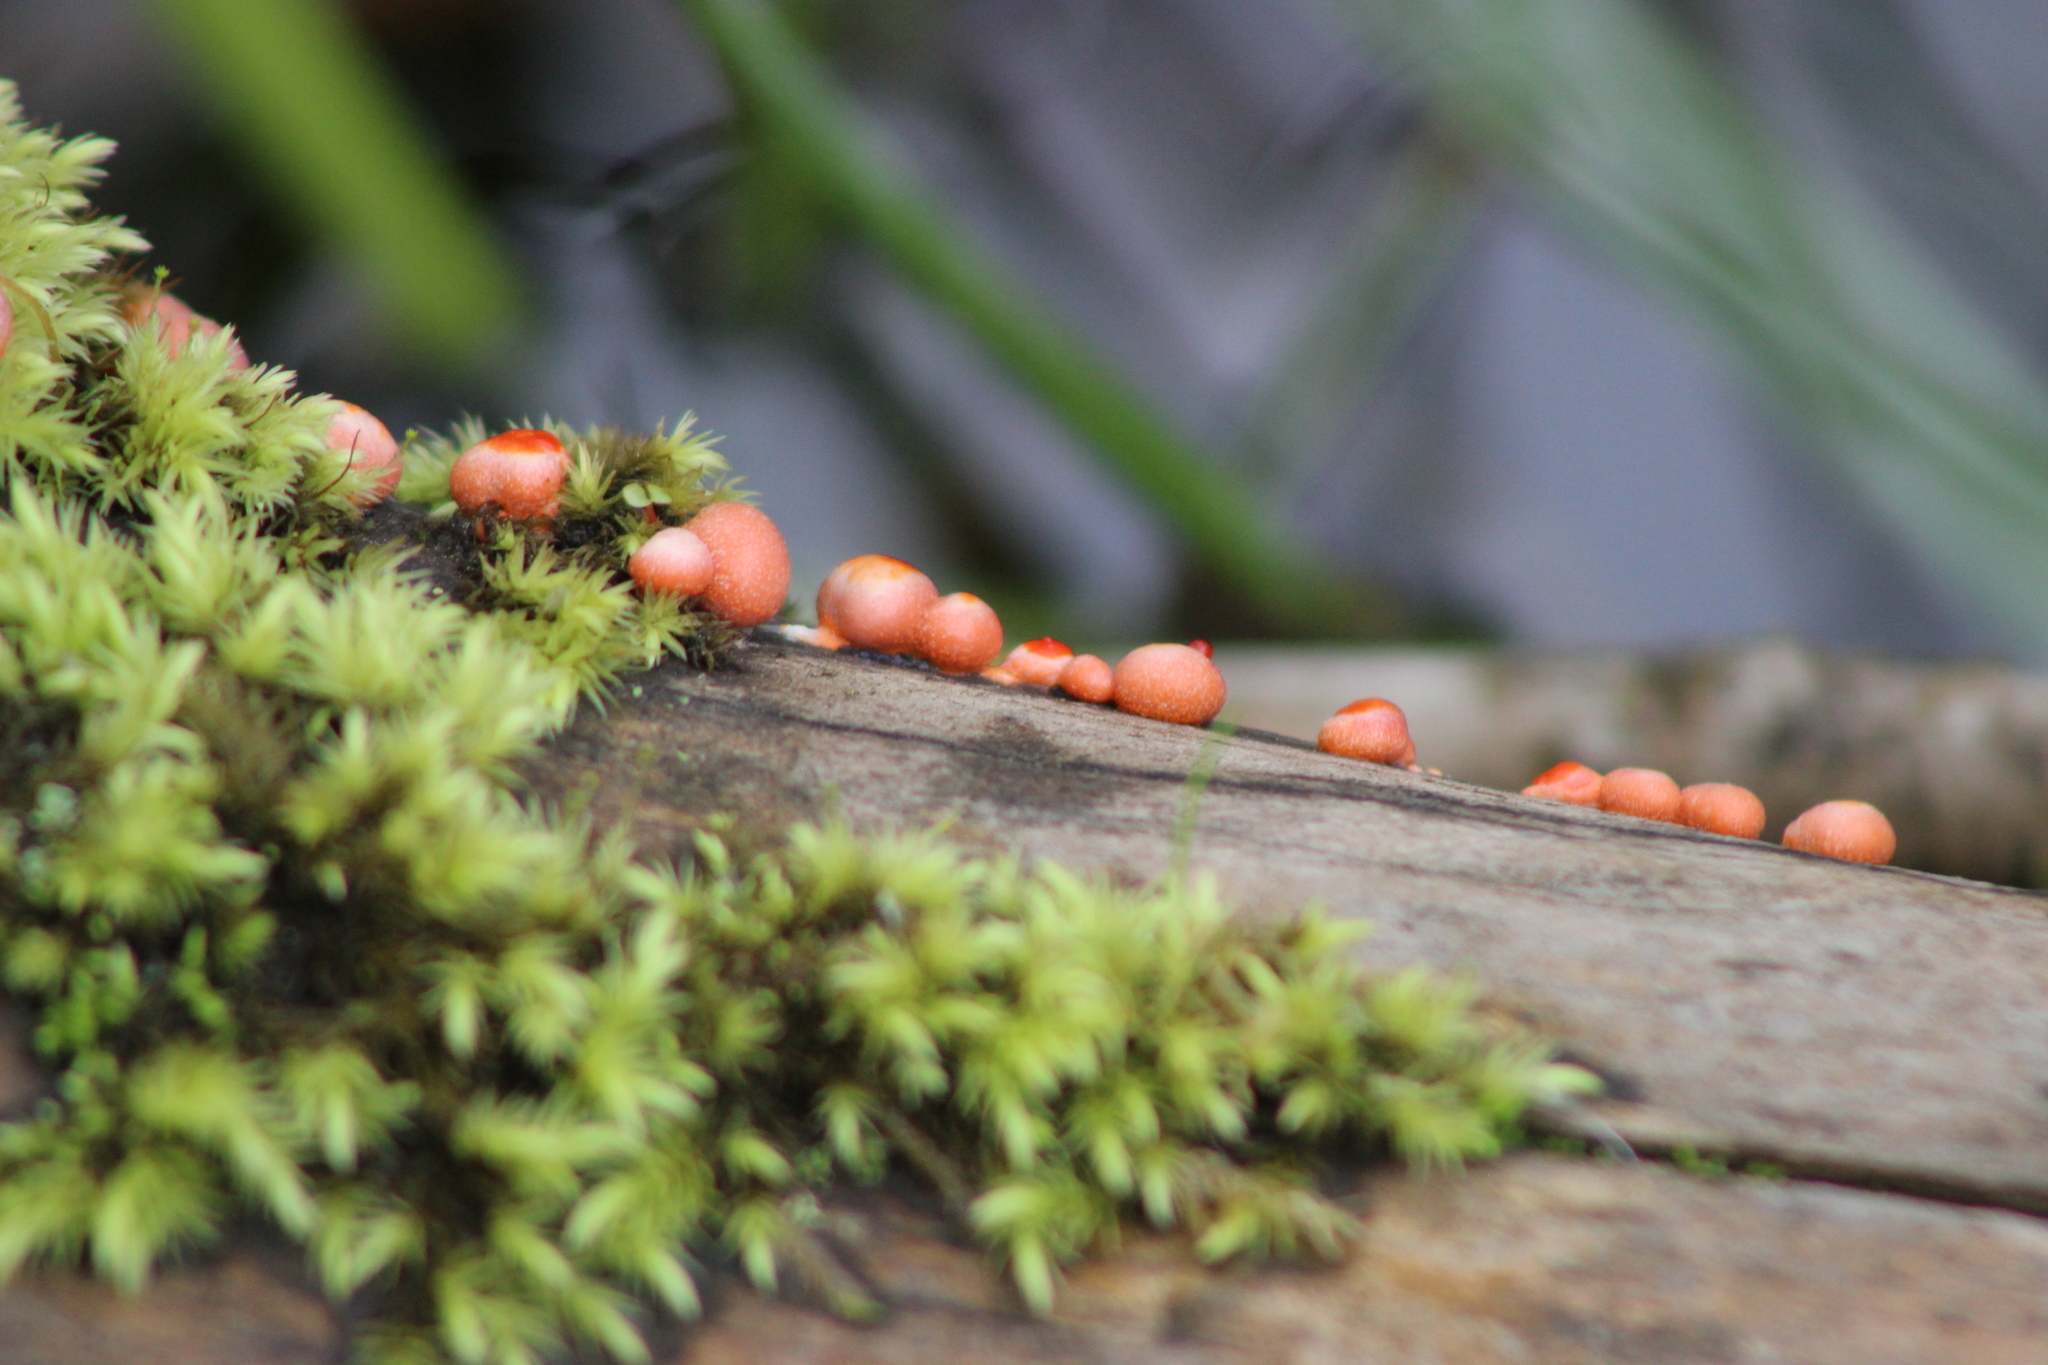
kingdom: Protozoa
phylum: Mycetozoa
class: Myxomycetes
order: Cribrariales
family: Tubiferaceae
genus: Lycogala
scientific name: Lycogala epidendrum
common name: Wolf's milk
